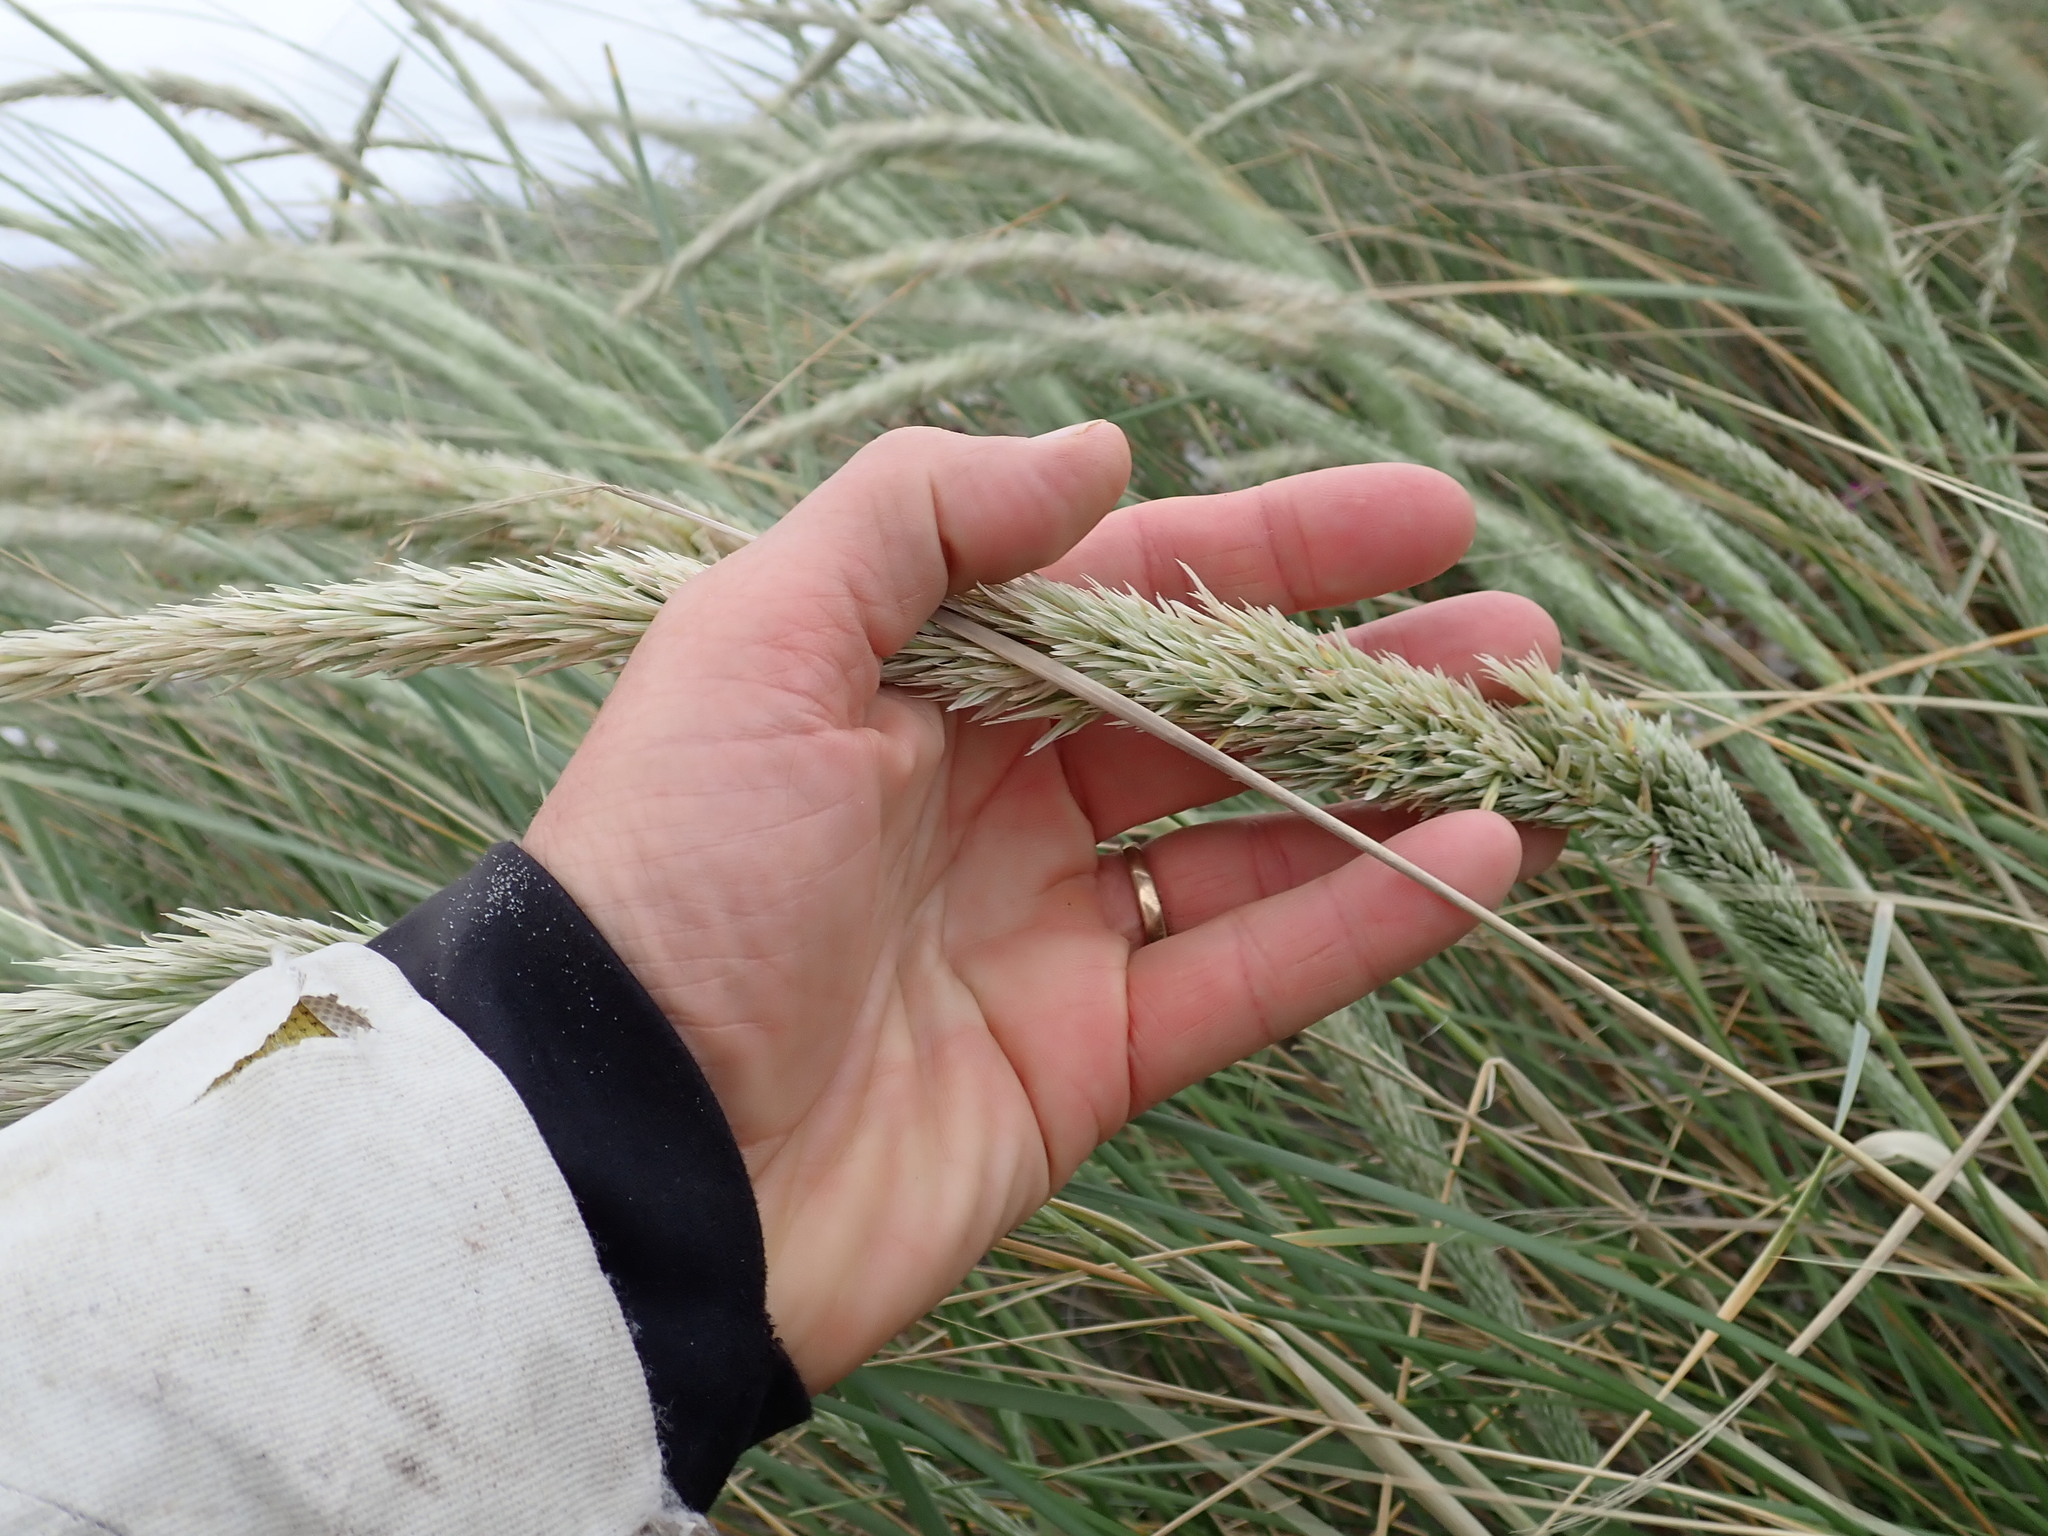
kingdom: Plantae
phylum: Tracheophyta
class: Liliopsida
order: Poales
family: Poaceae
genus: Calamagrostis
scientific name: Calamagrostis arenaria
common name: European beachgrass
